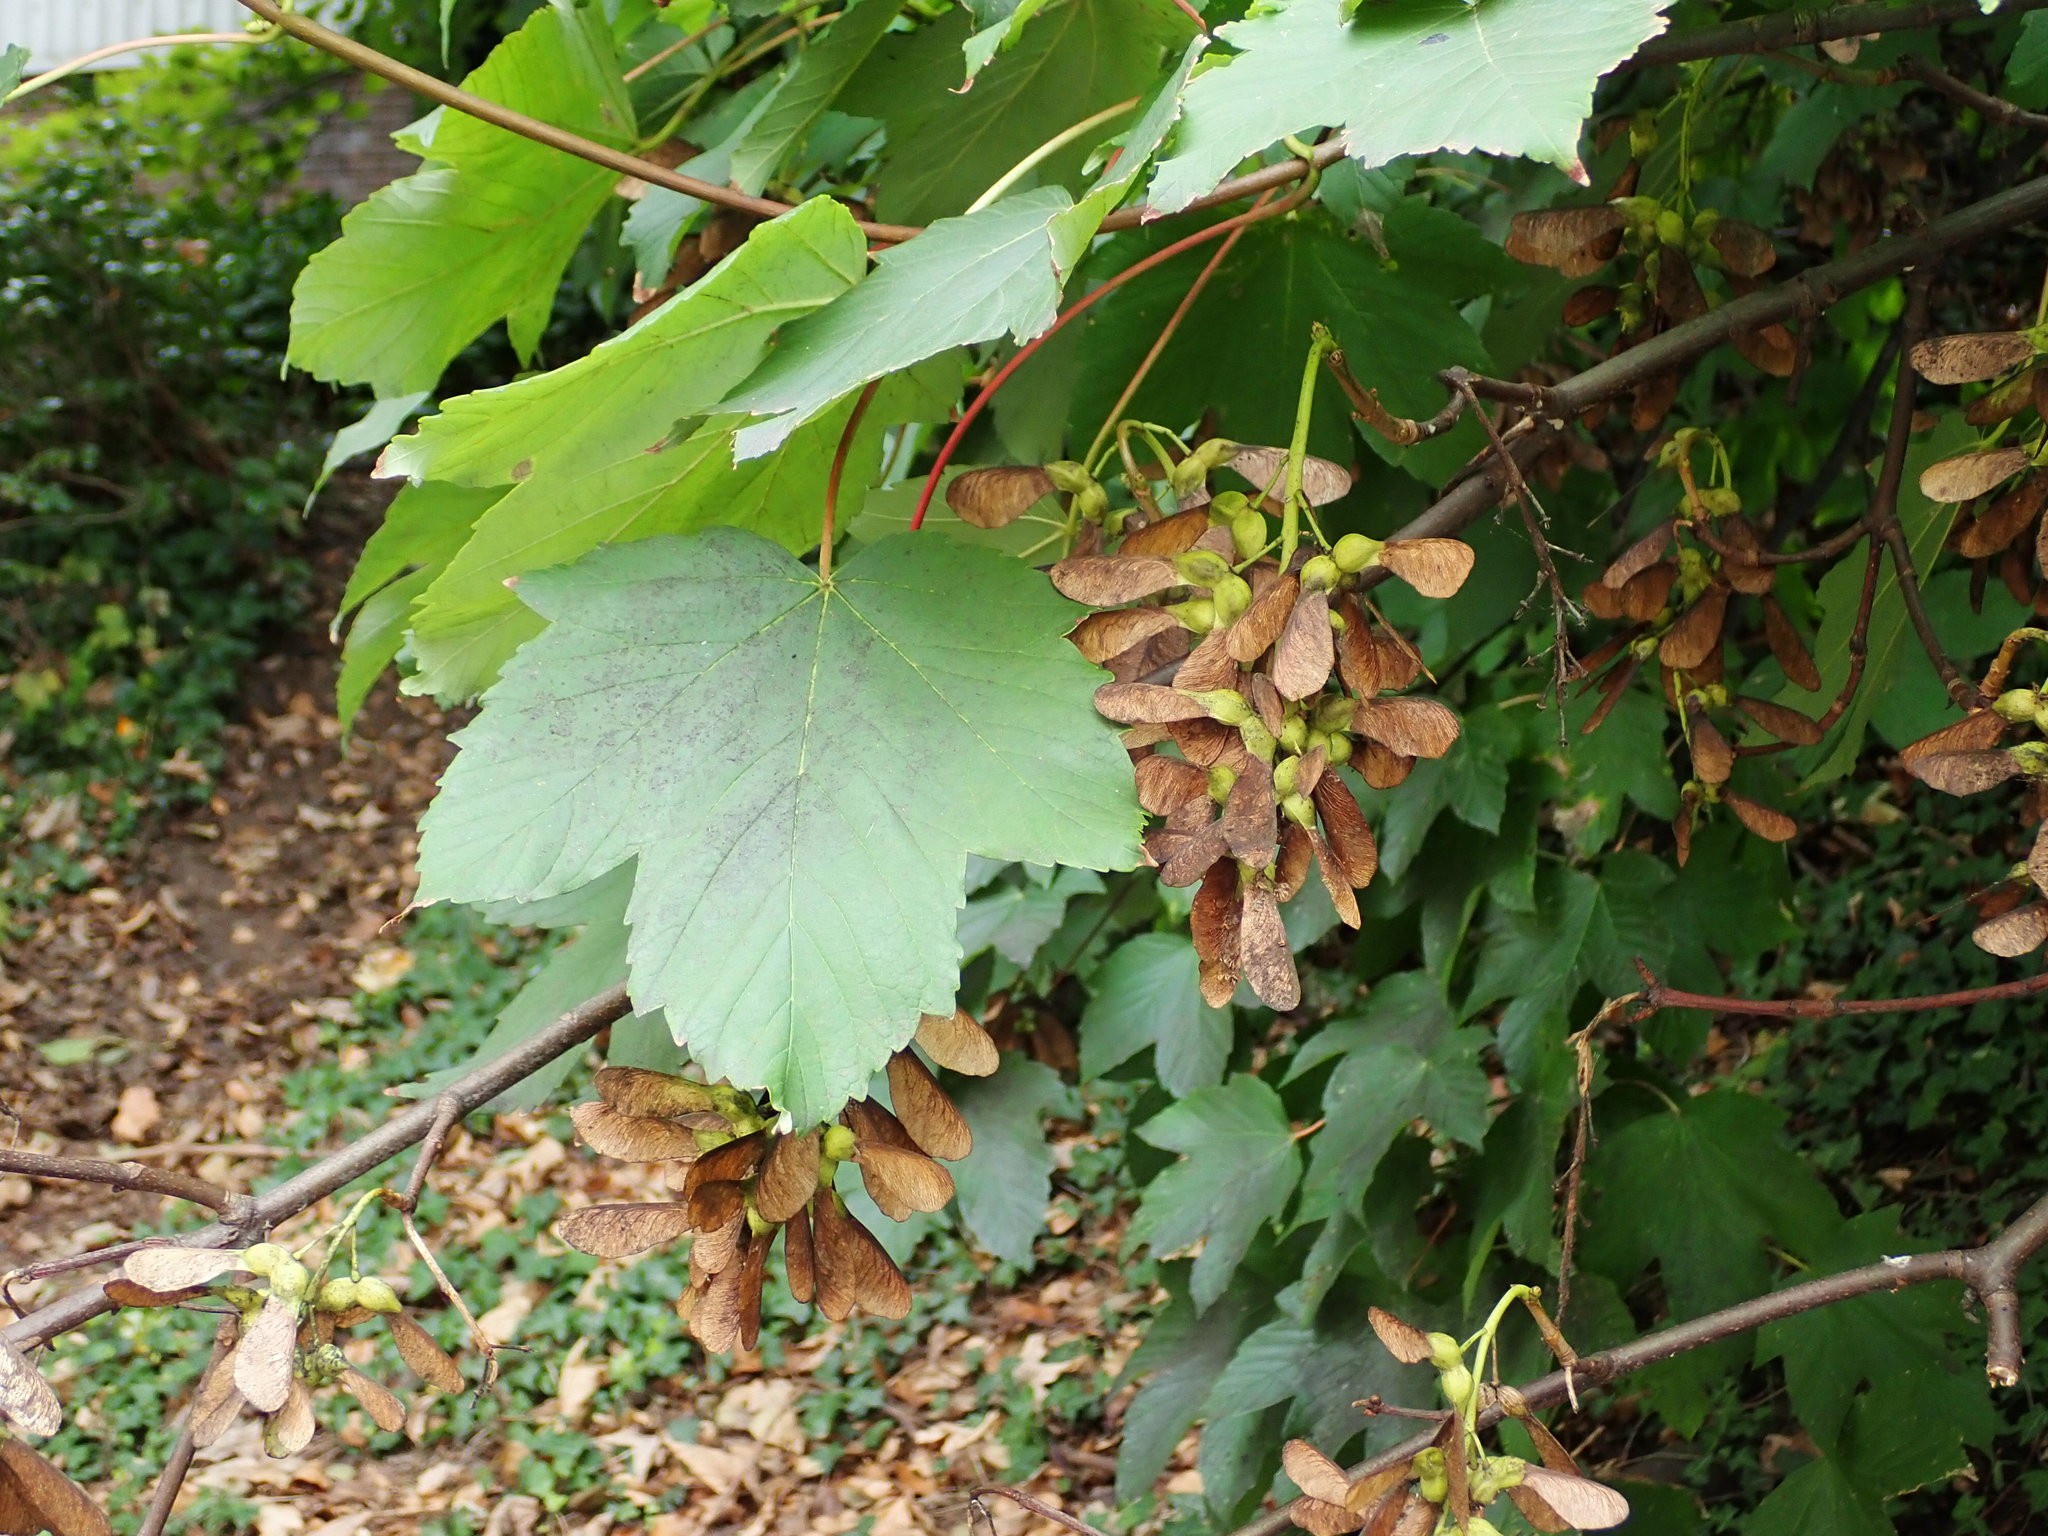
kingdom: Plantae
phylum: Tracheophyta
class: Magnoliopsida
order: Sapindales
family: Sapindaceae
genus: Acer
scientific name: Acer pseudoplatanus
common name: Sycamore
